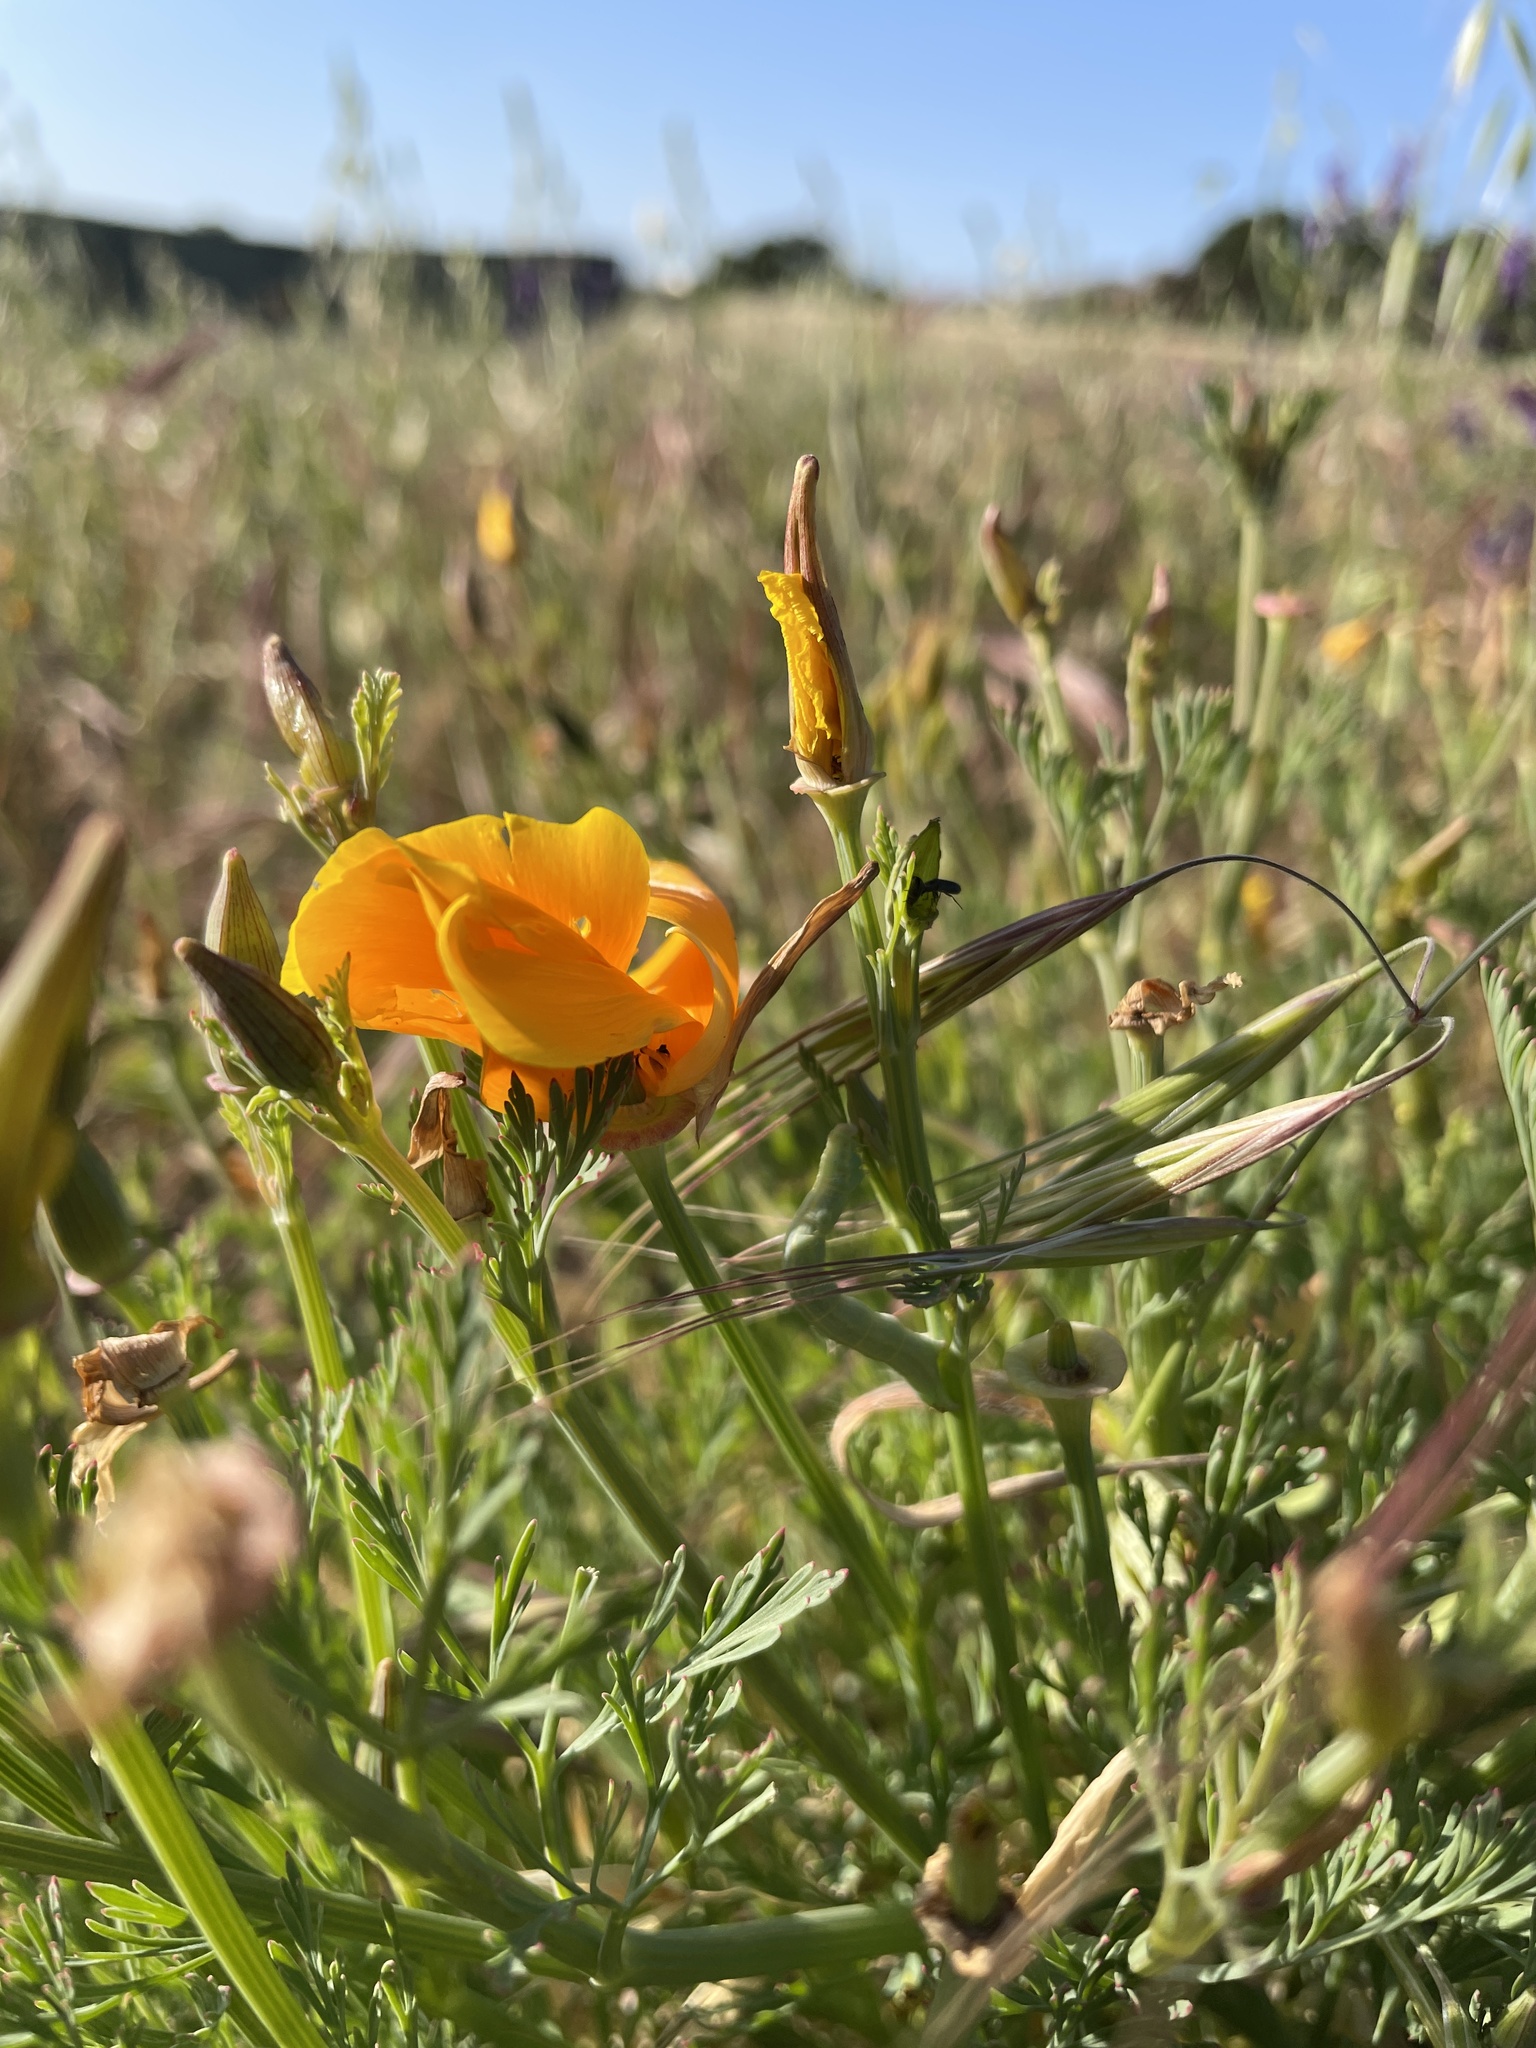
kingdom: Plantae
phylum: Tracheophyta
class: Magnoliopsida
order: Ranunculales
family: Papaveraceae
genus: Eschscholzia
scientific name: Eschscholzia californica
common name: California poppy
